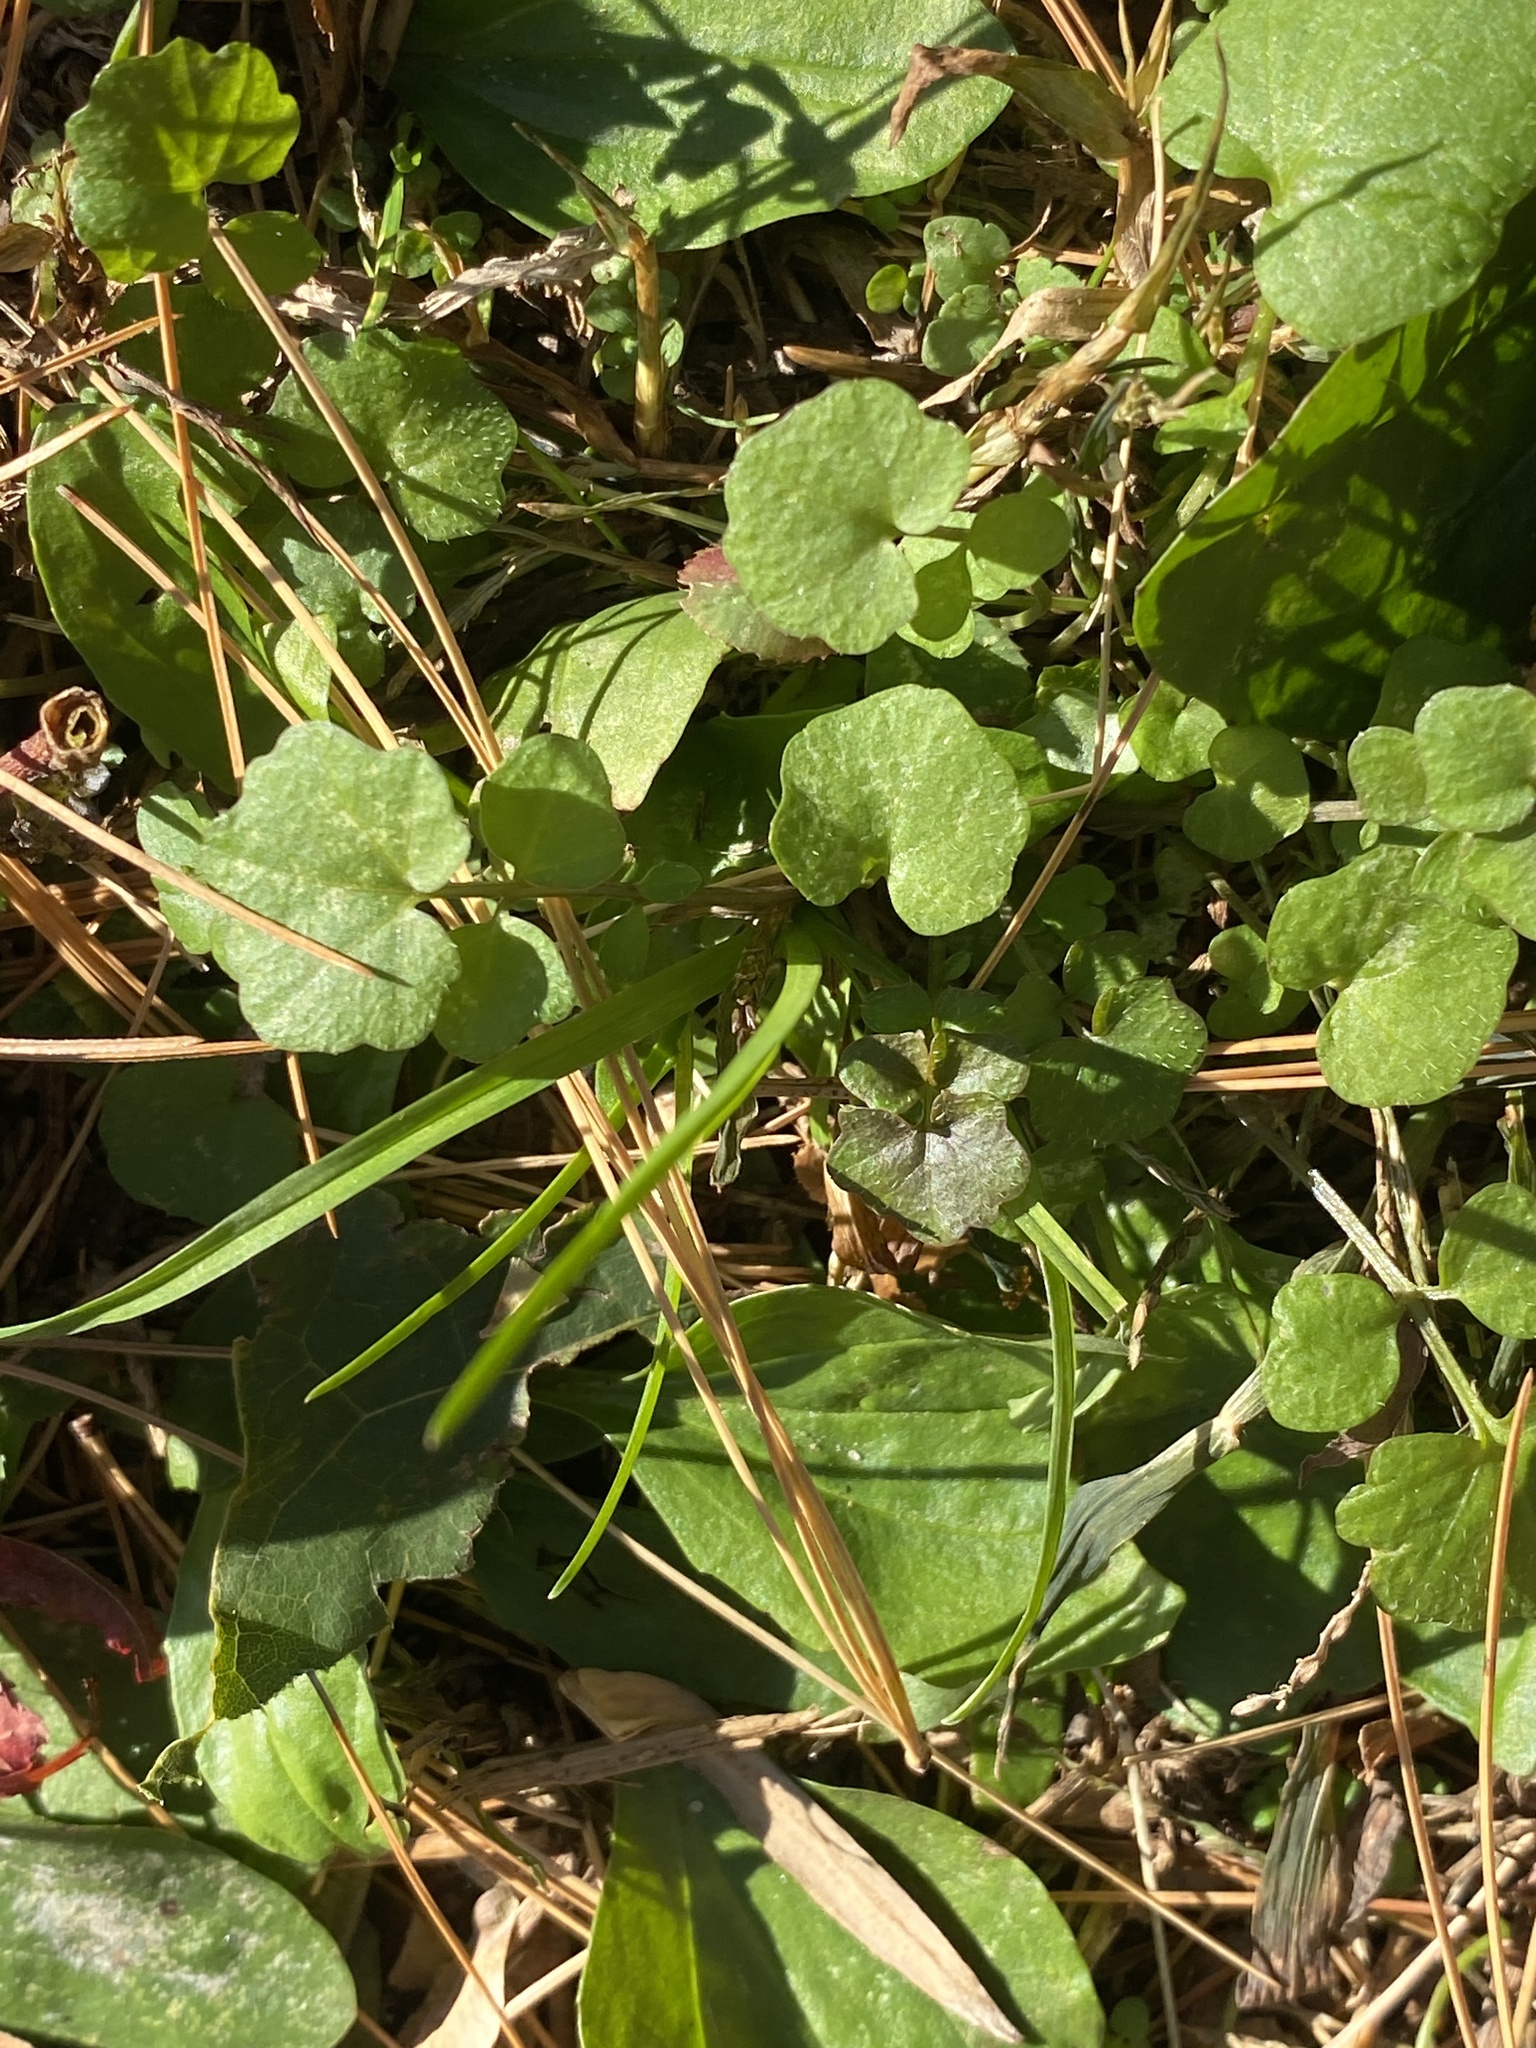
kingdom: Plantae
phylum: Tracheophyta
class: Magnoliopsida
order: Brassicales
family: Brassicaceae
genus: Cardamine
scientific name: Cardamine hirsuta
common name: Hairy bittercress
